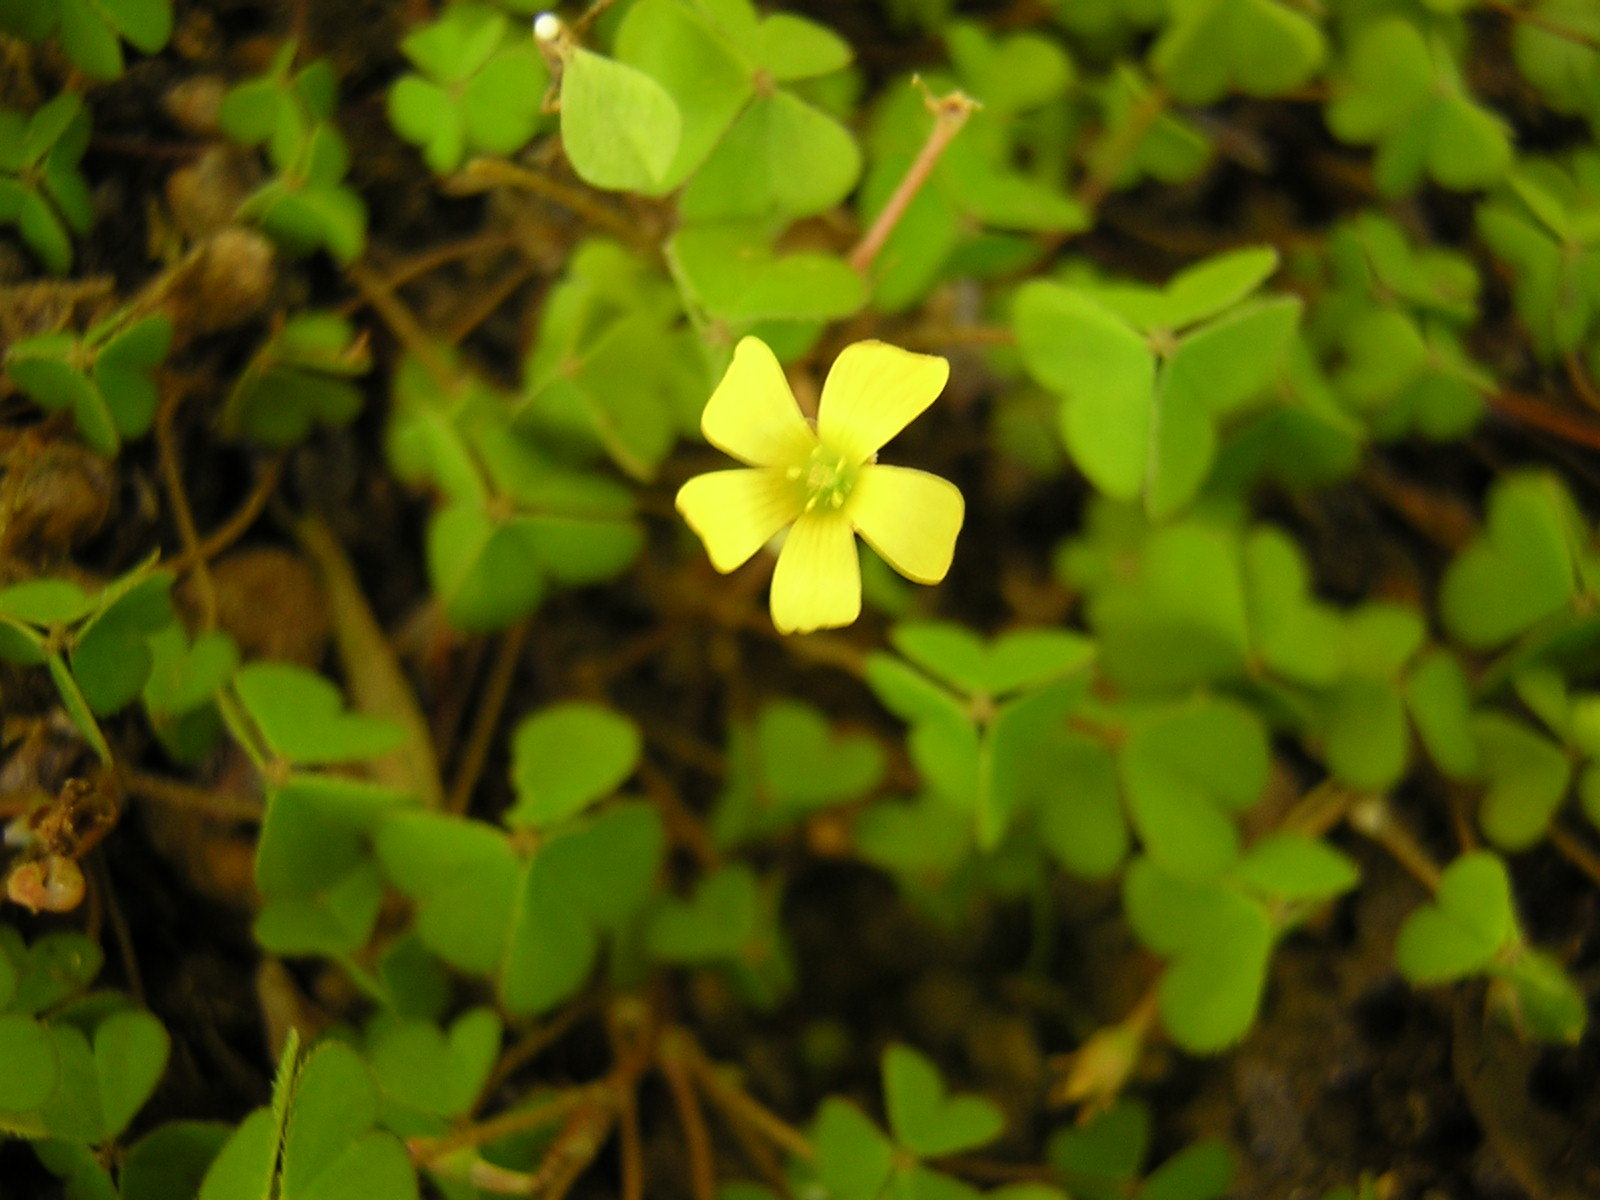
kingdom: Plantae
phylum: Tracheophyta
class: Magnoliopsida
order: Oxalidales
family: Oxalidaceae
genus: Oxalis
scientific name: Oxalis exilis
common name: Least yellow-sorrel
